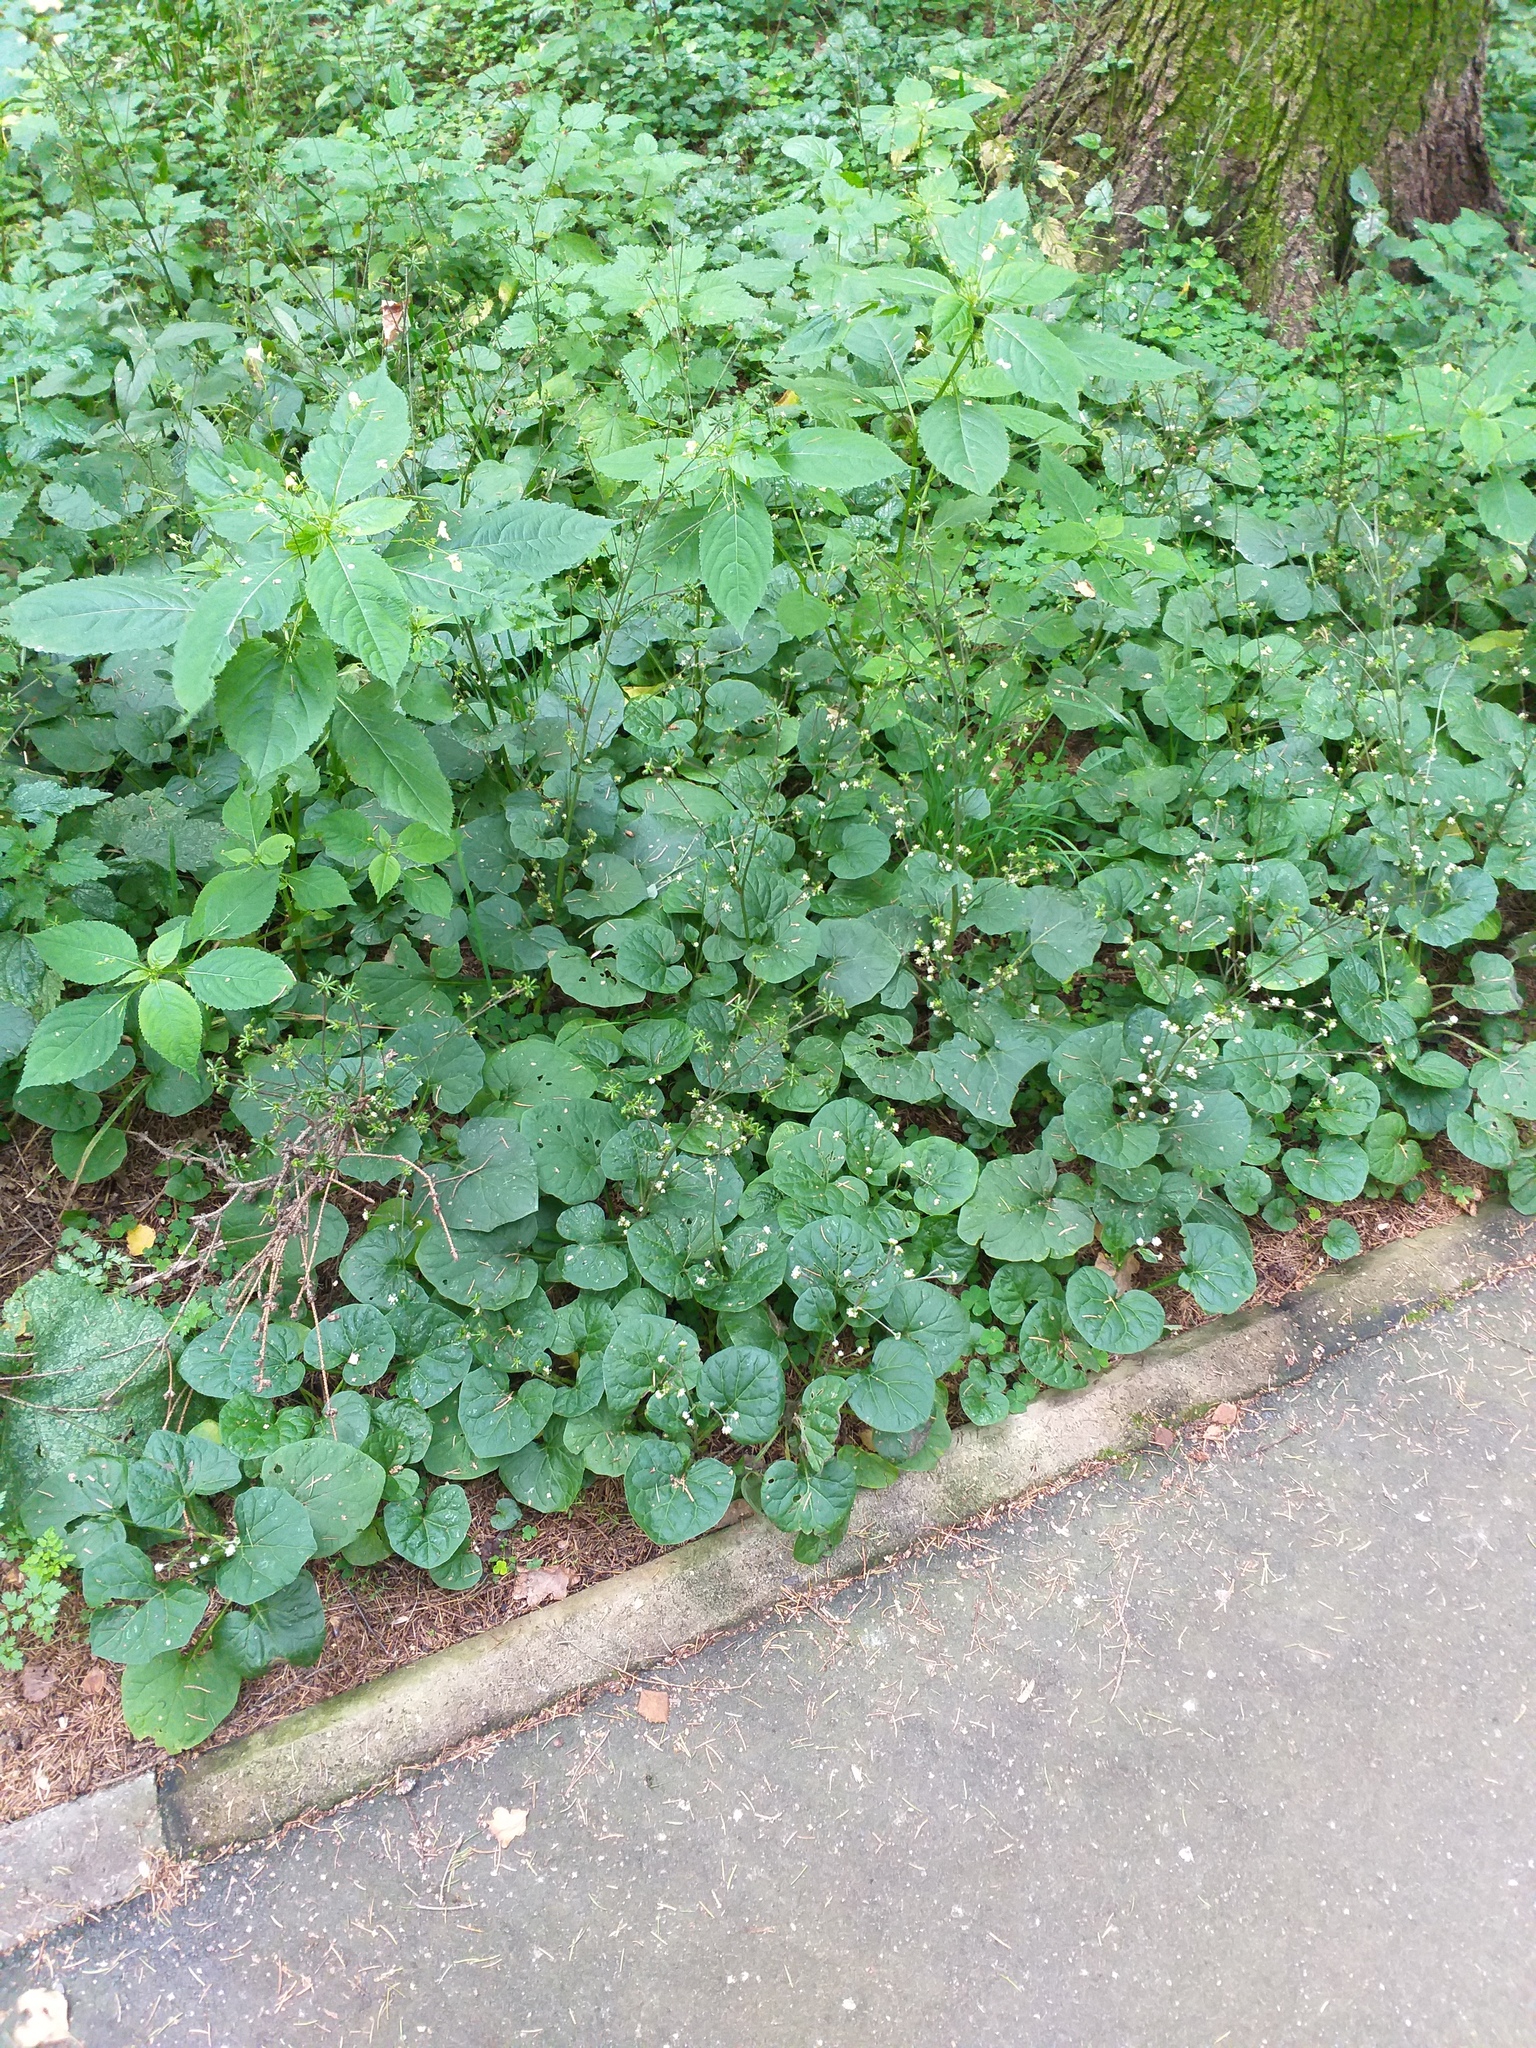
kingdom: Plantae
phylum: Tracheophyta
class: Magnoliopsida
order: Asterales
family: Asteraceae
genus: Adenocaulon
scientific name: Adenocaulon himalaicum
